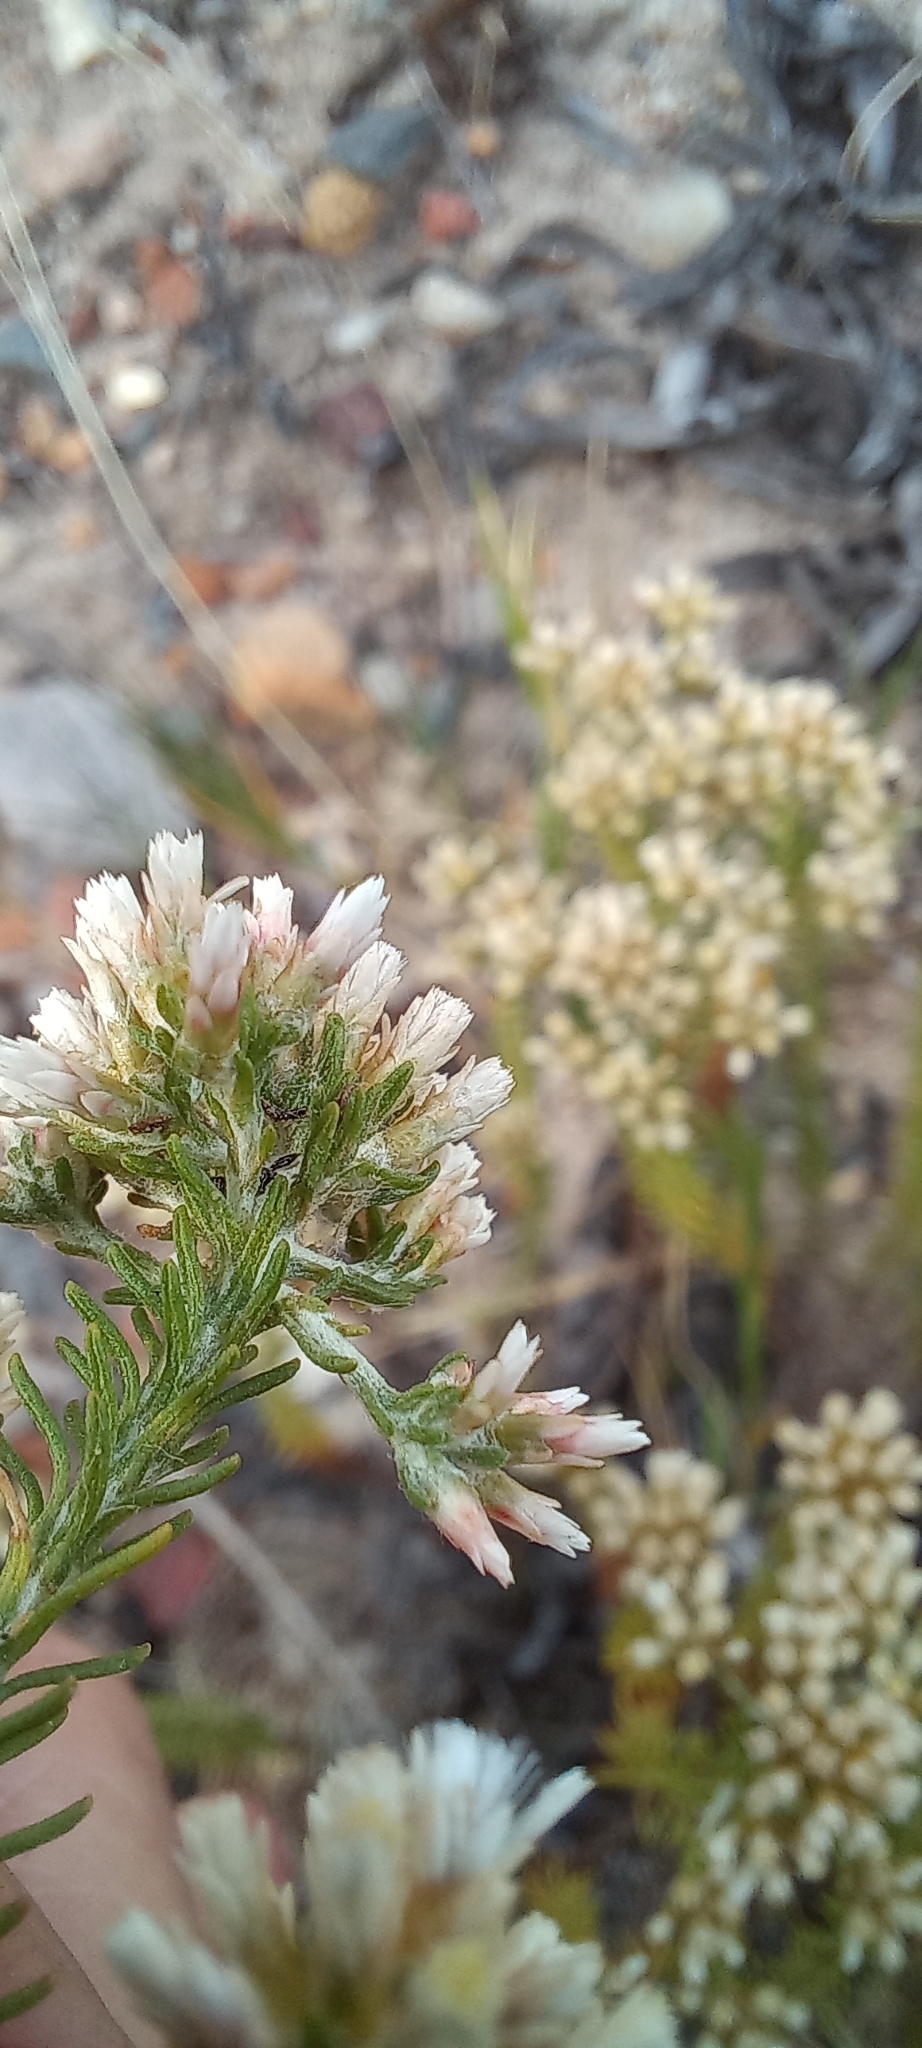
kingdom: Plantae
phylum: Tracheophyta
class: Magnoliopsida
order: Asterales
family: Asteraceae
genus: Helichrysum
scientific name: Helichrysum niveum
